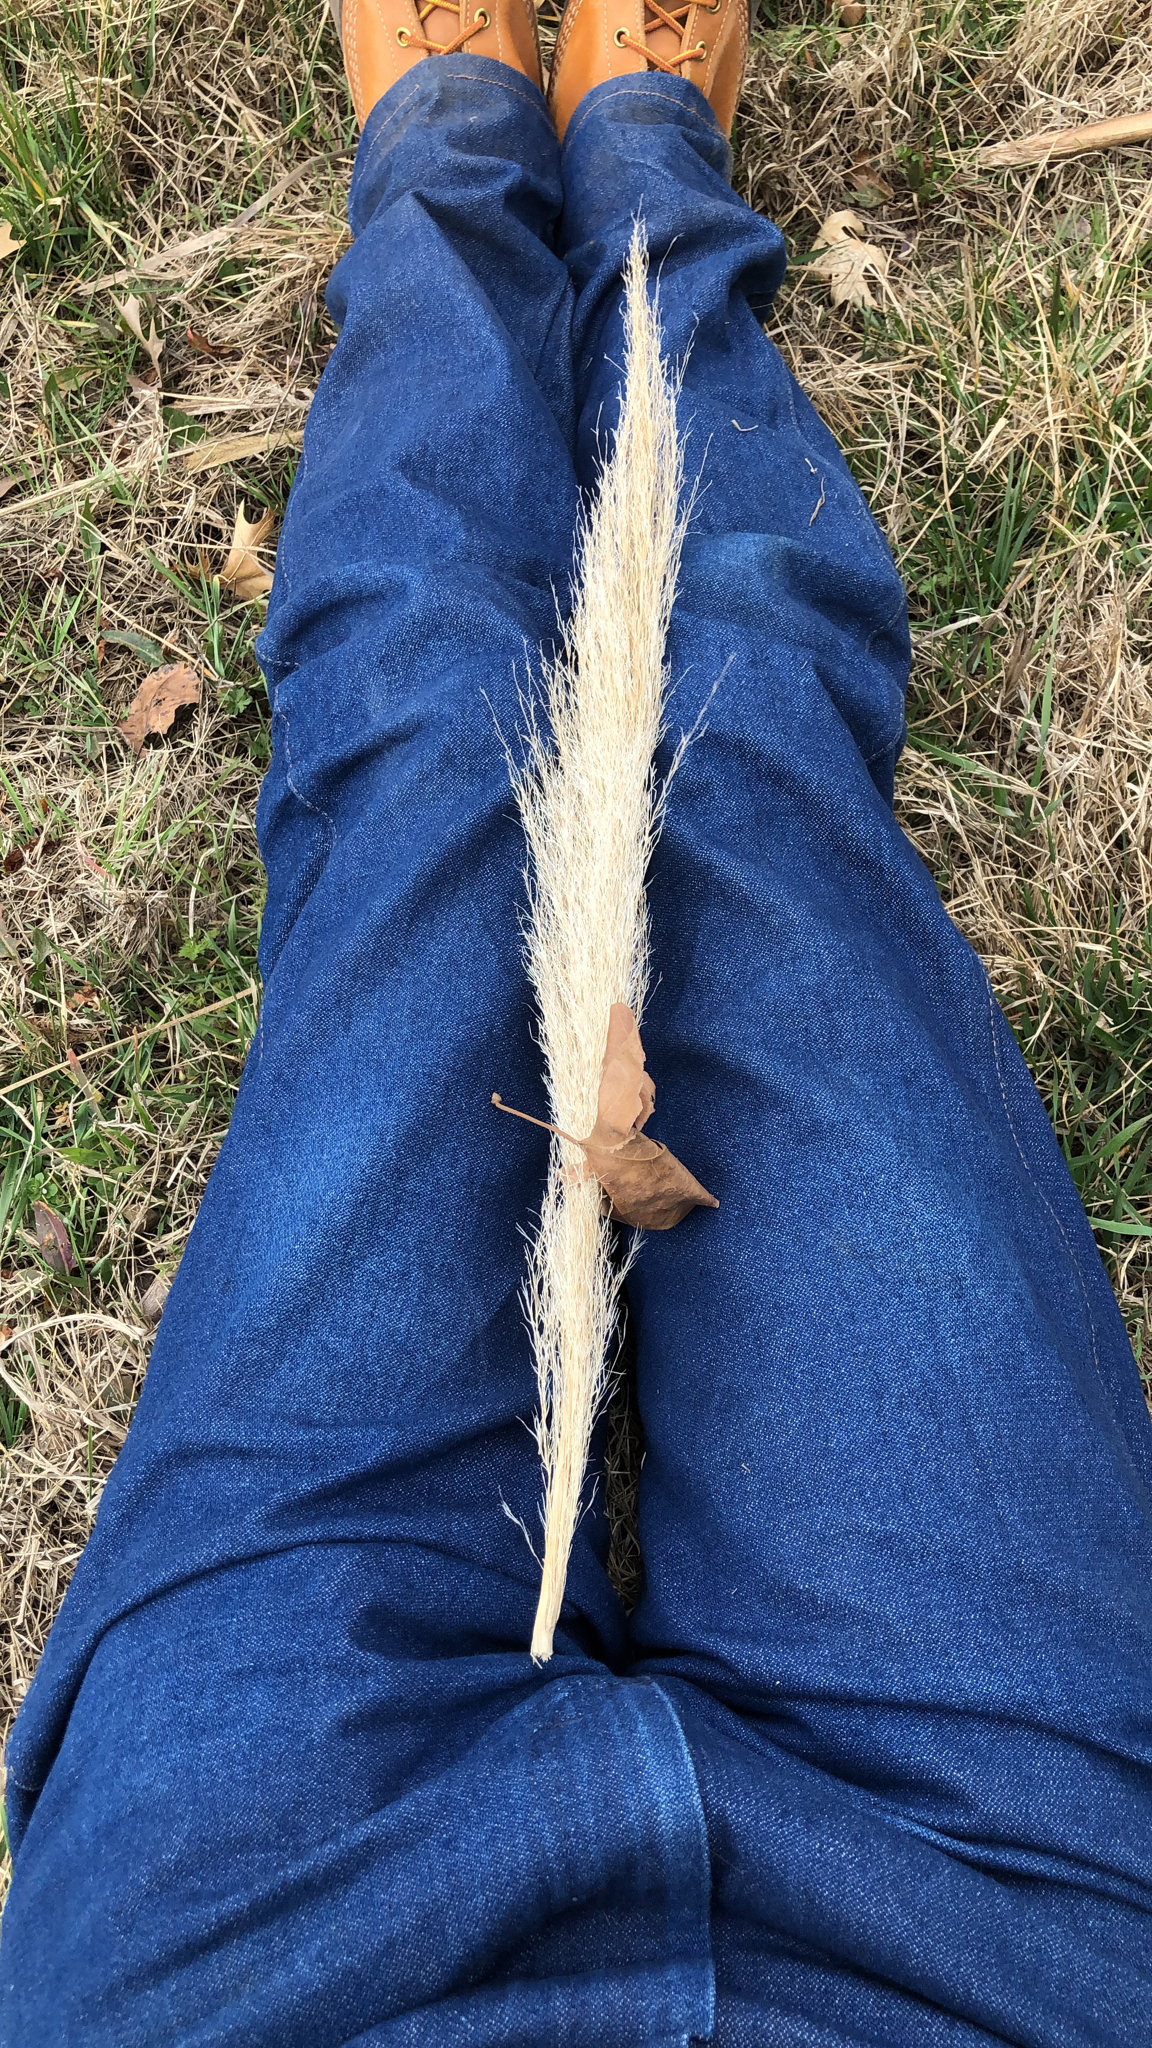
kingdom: Plantae
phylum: Tracheophyta
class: Liliopsida
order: Poales
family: Poaceae
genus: Cortaderia
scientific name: Cortaderia selloana
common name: Uruguayan pampas grass
